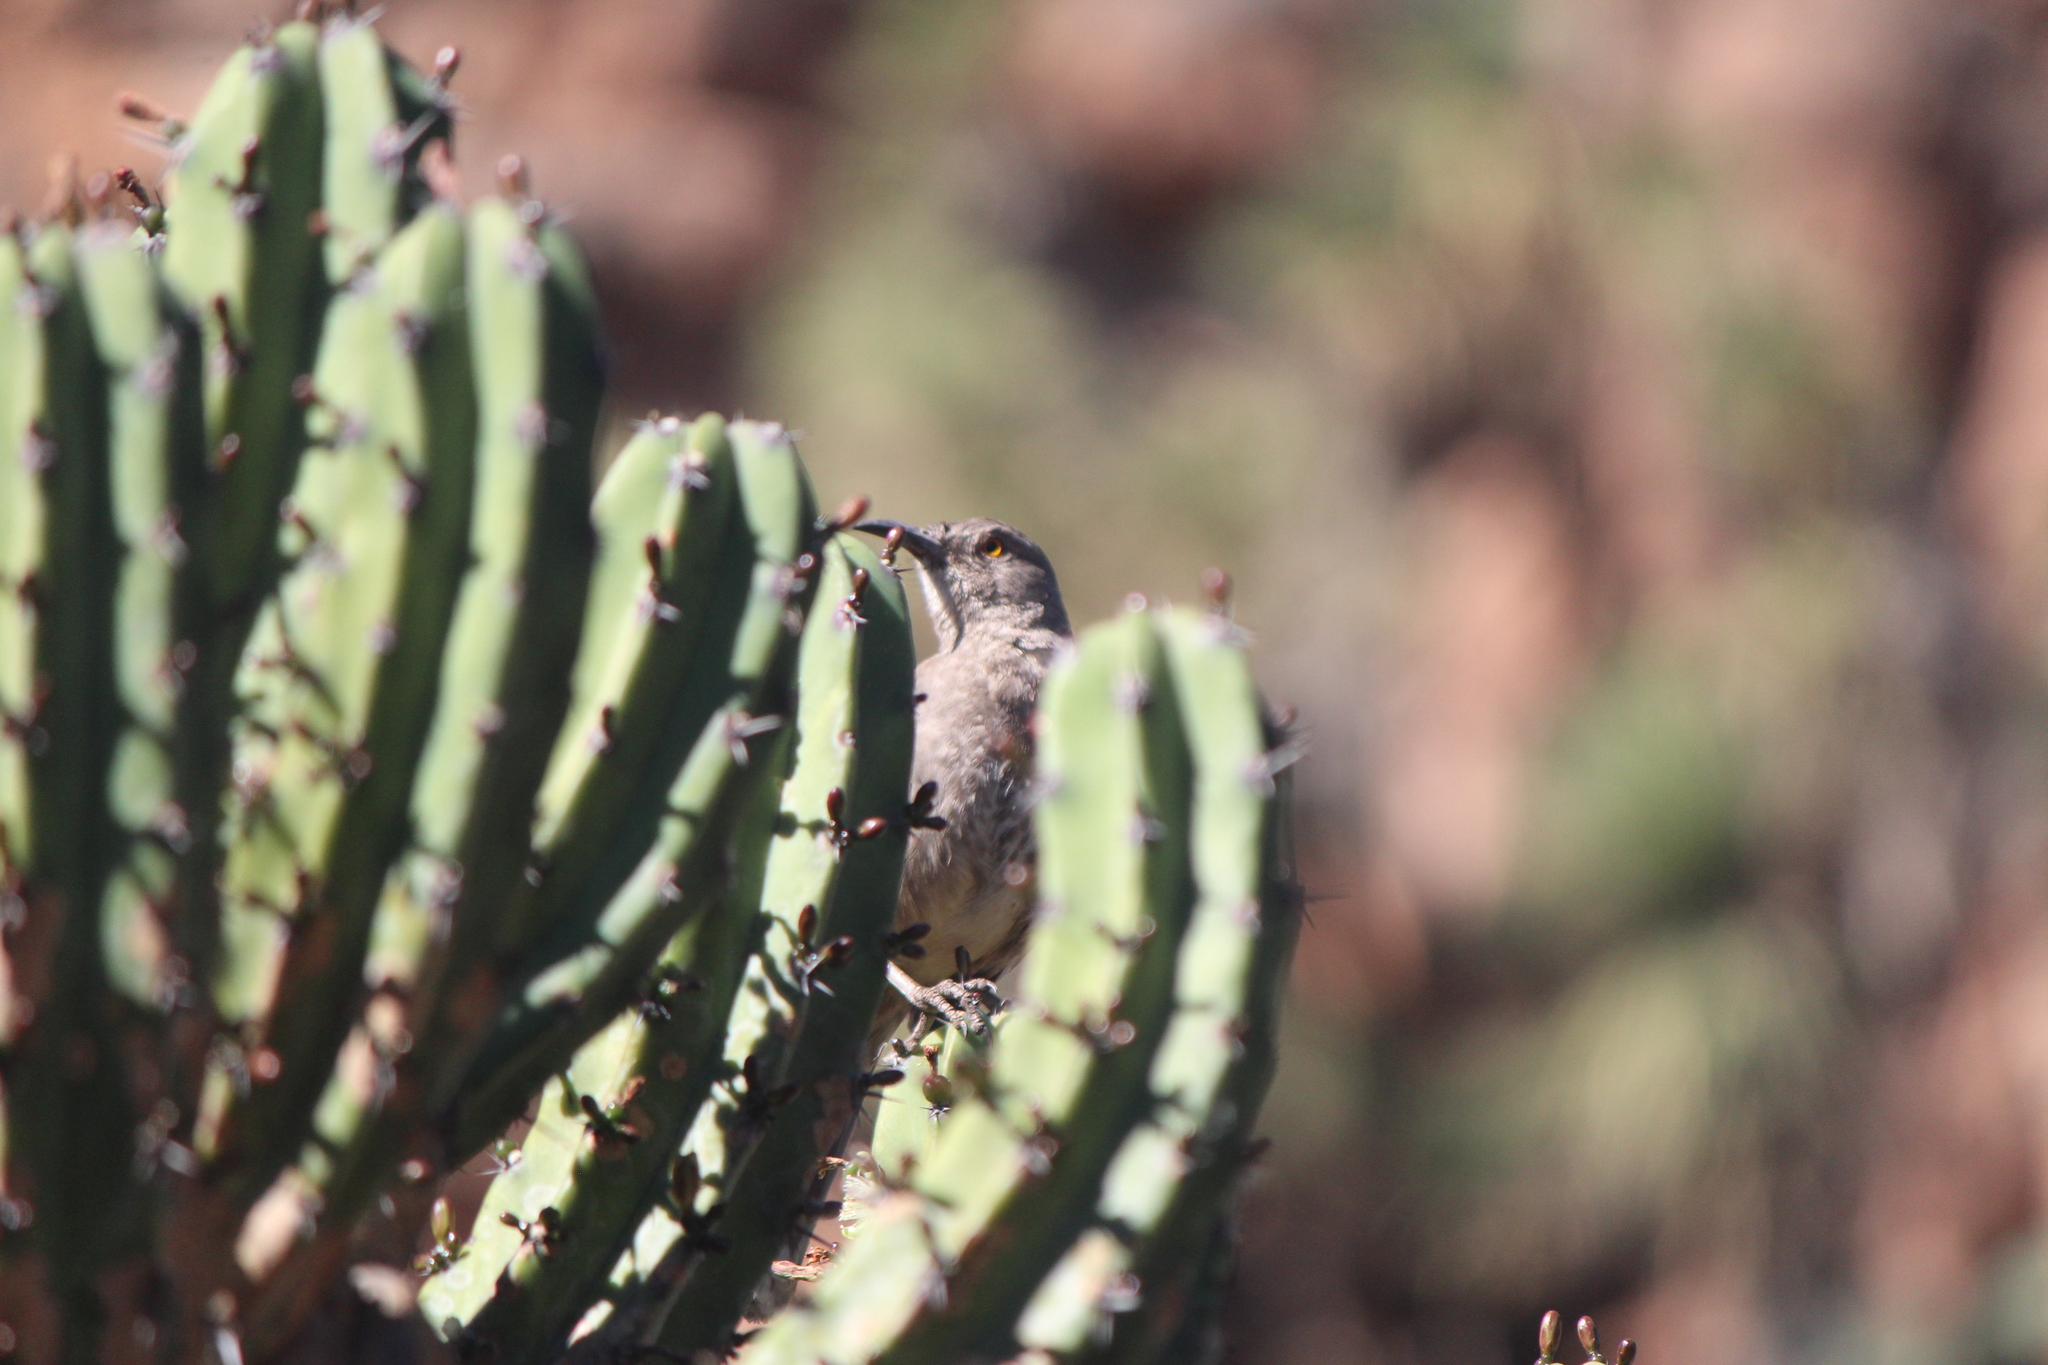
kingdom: Animalia
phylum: Chordata
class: Aves
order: Passeriformes
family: Mimidae
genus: Toxostoma
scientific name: Toxostoma curvirostre
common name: Curve-billed thrasher
